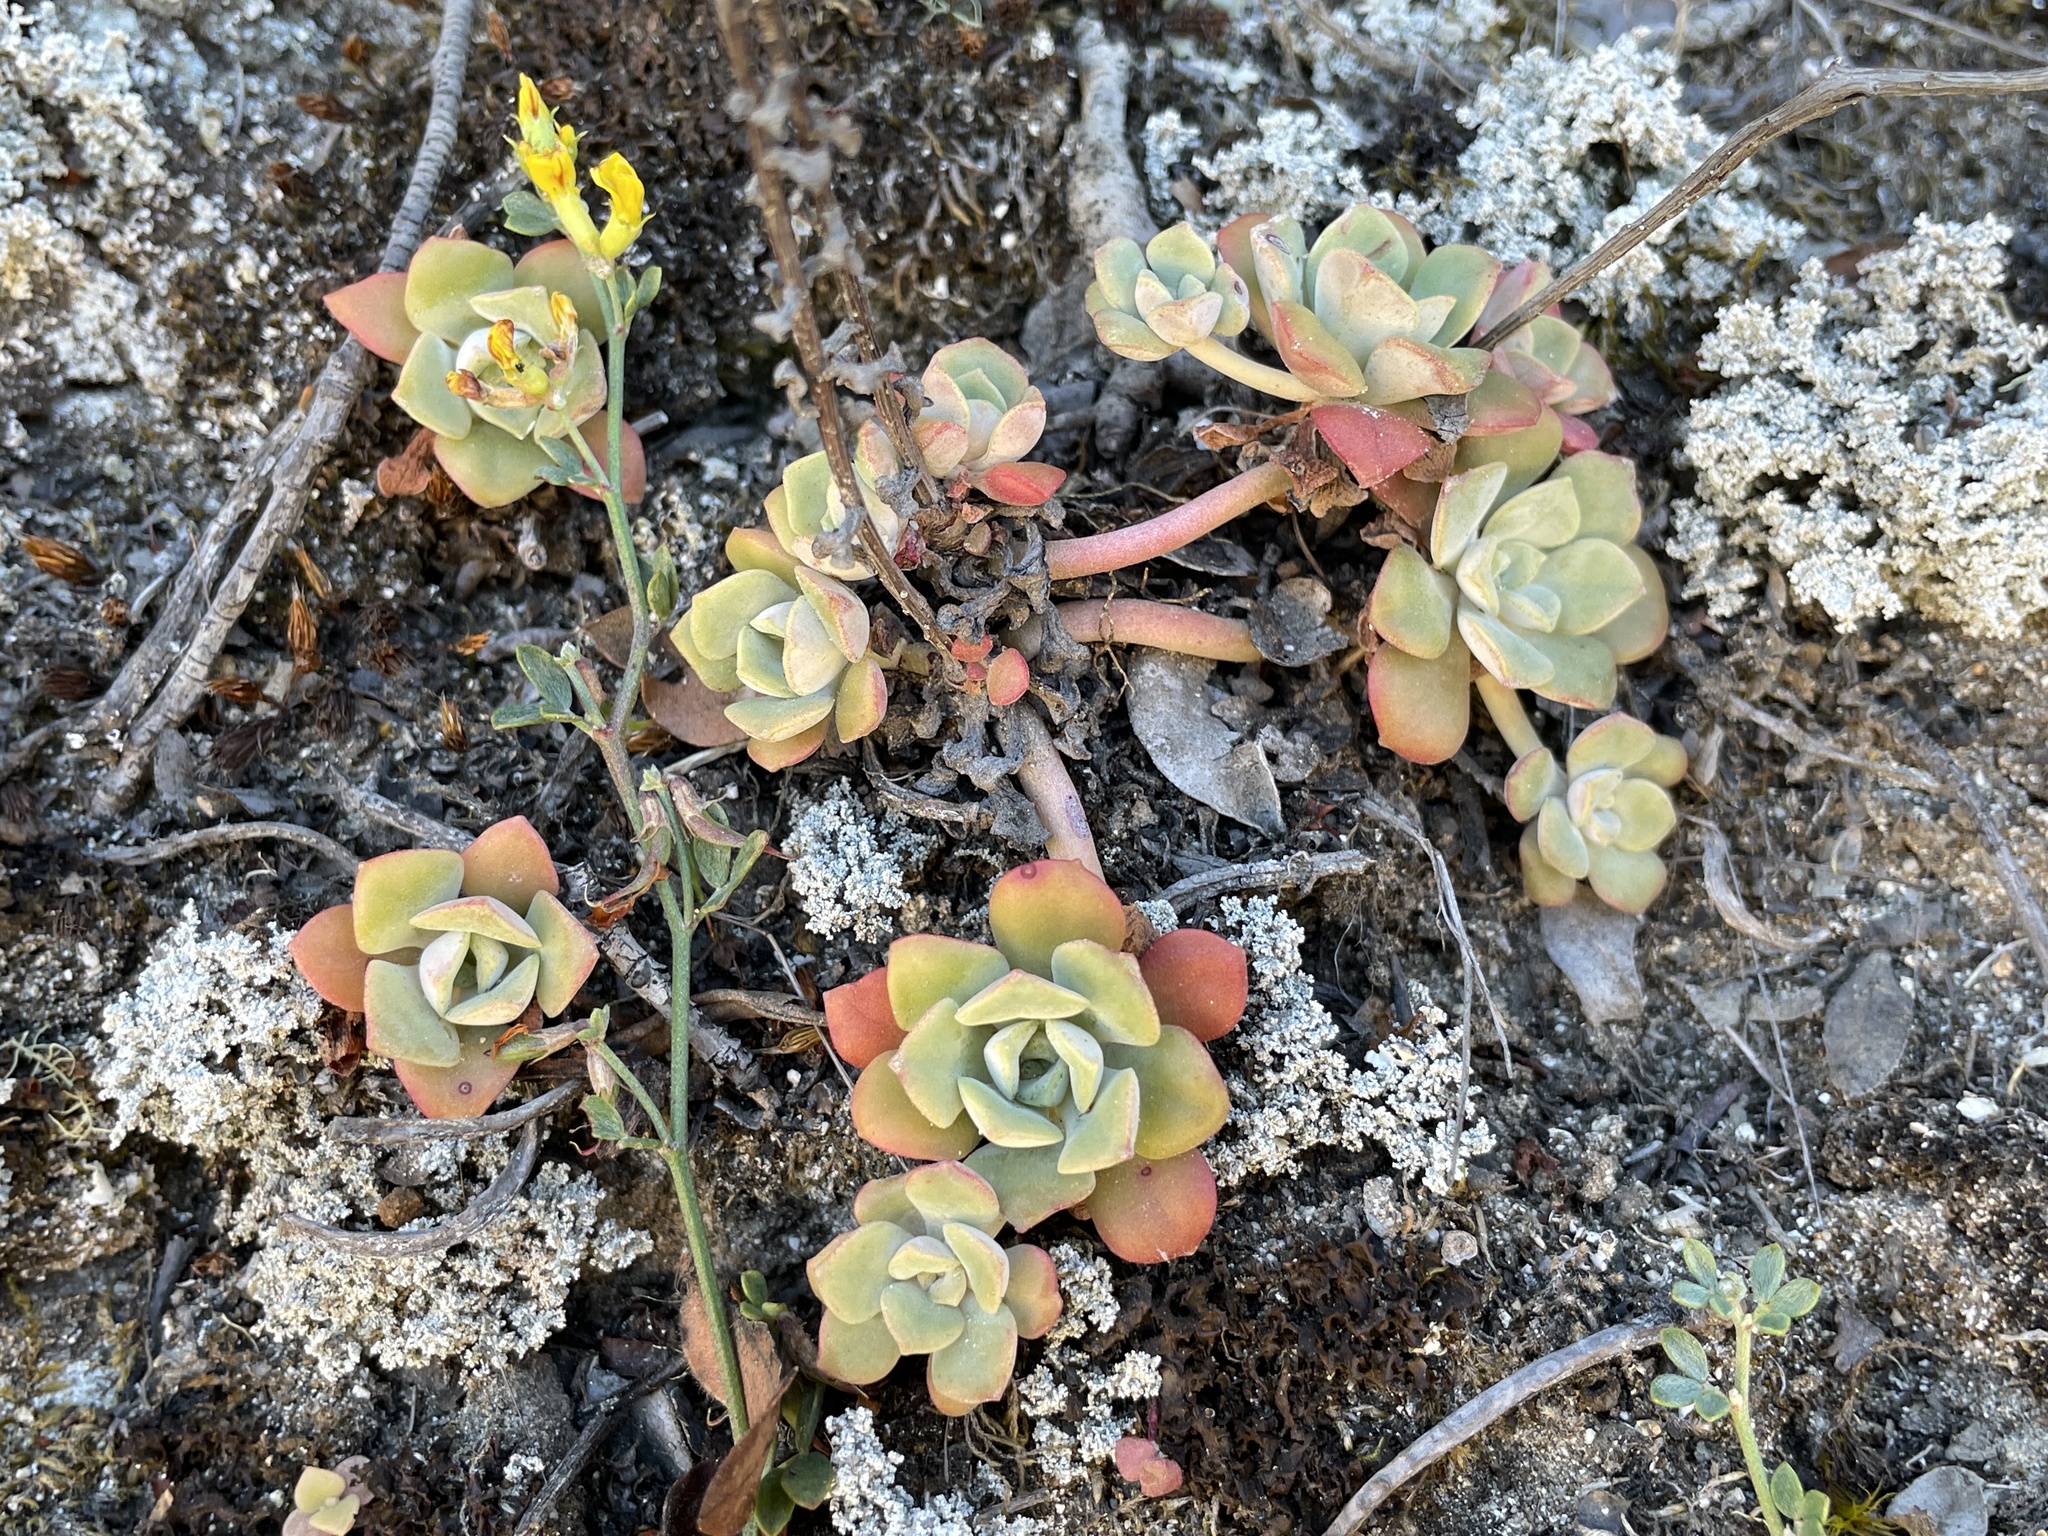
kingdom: Plantae
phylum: Tracheophyta
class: Magnoliopsida
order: Saxifragales
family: Crassulaceae
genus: Sedum
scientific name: Sedum spathulifolium
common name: Colorado stonecrop
